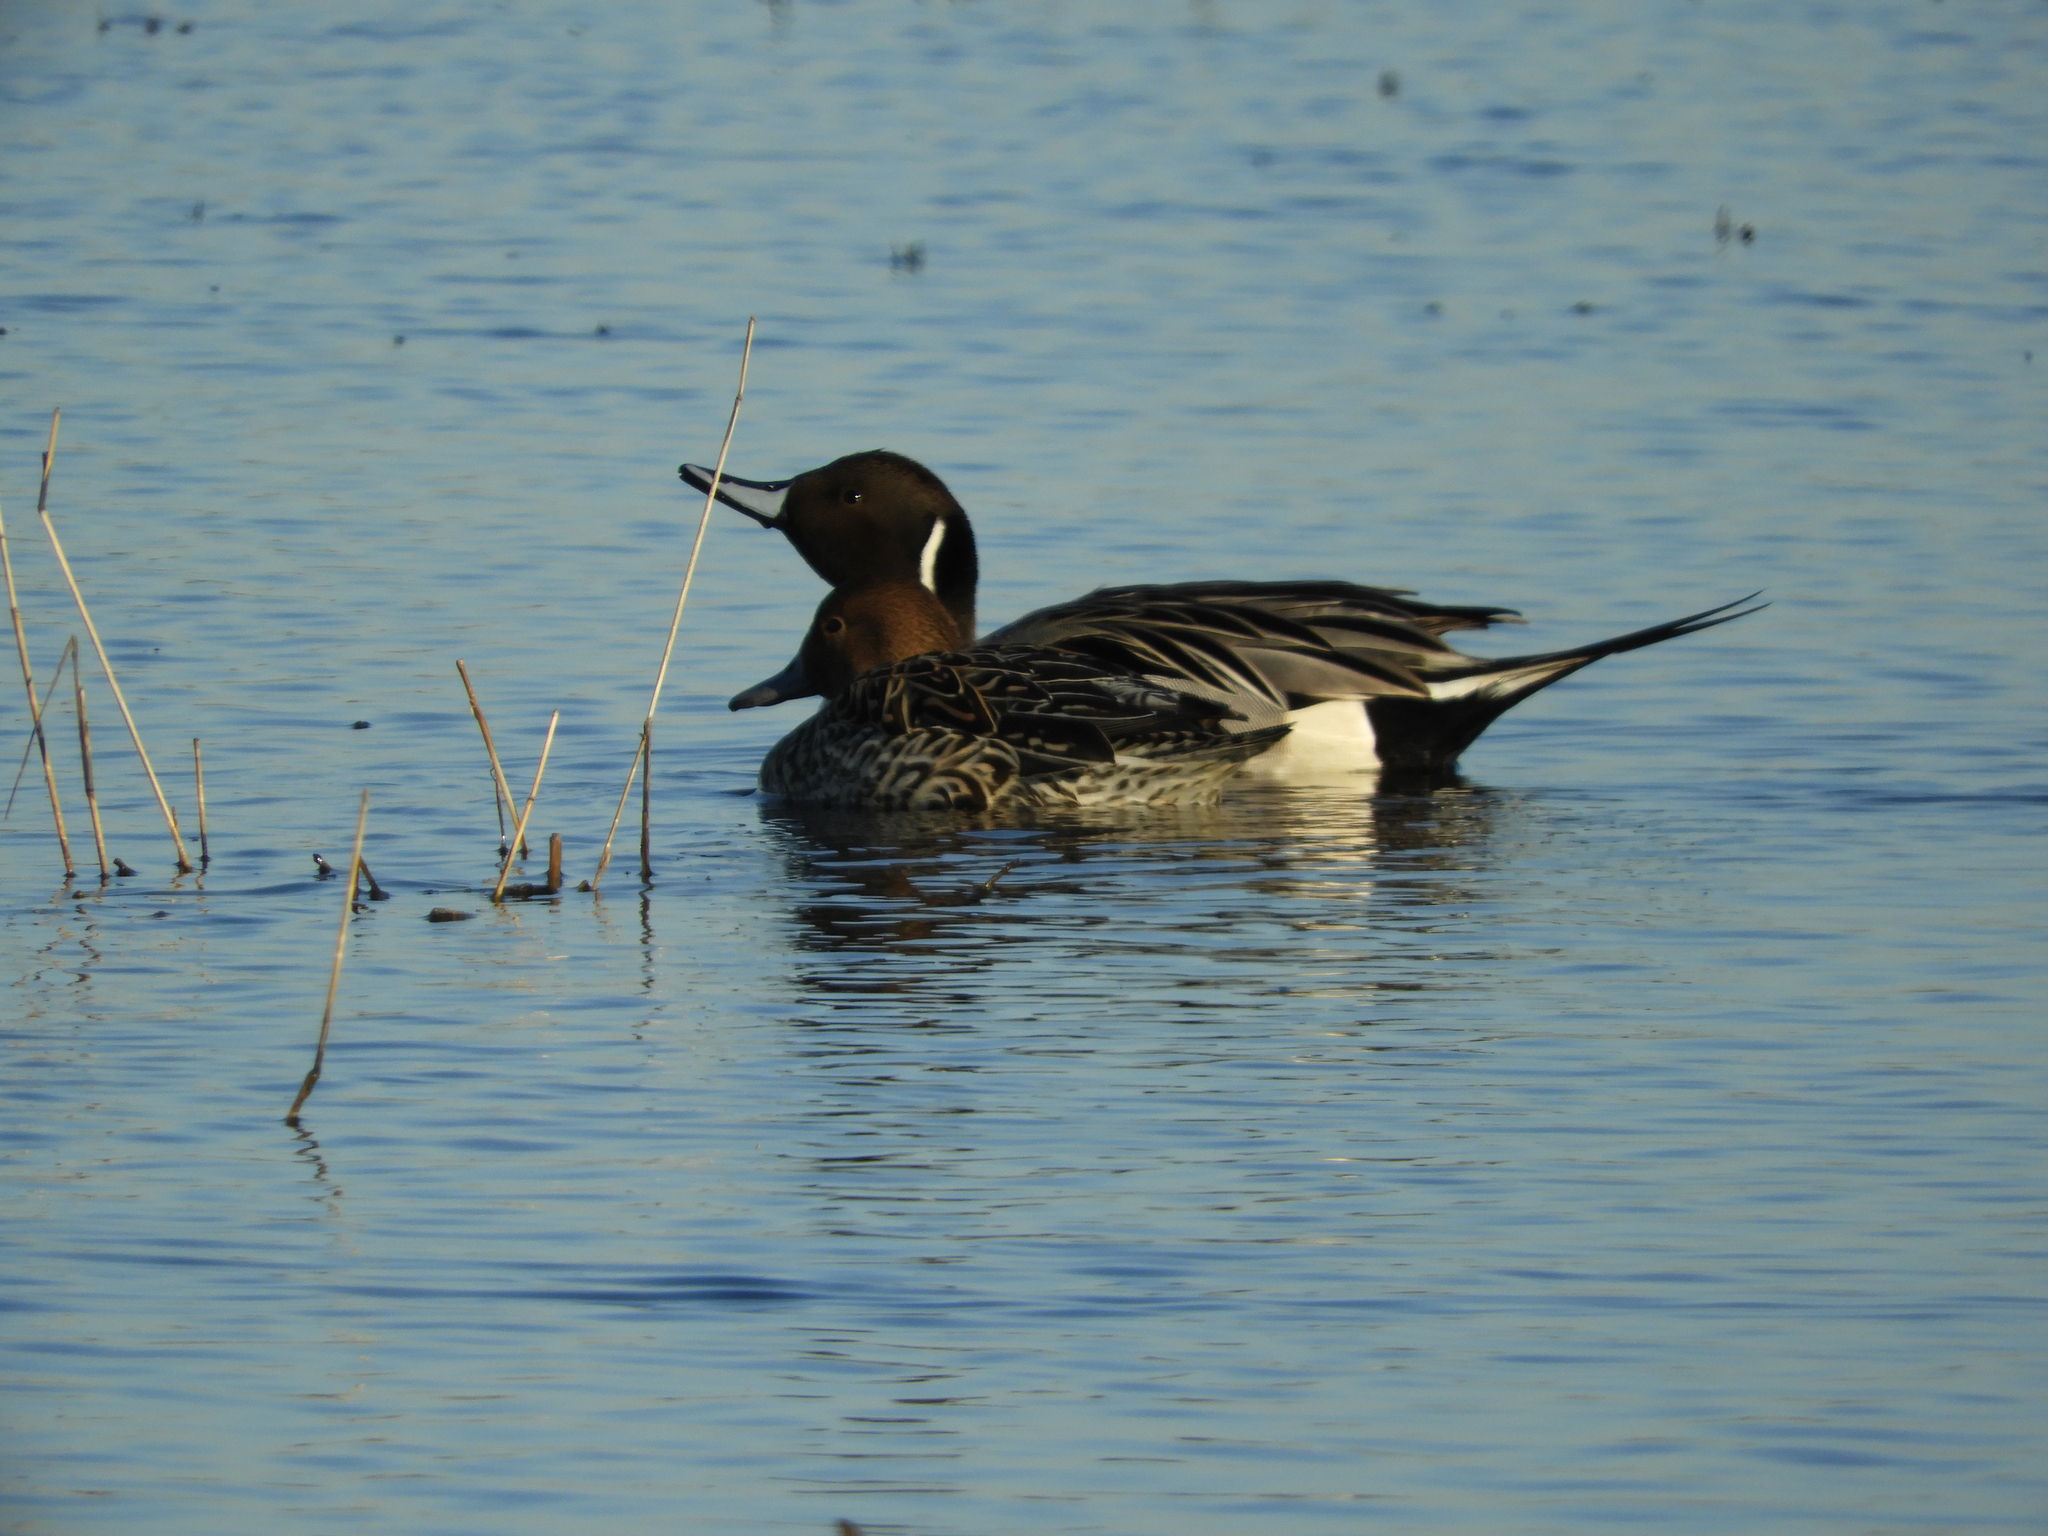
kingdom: Animalia
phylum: Chordata
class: Aves
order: Anseriformes
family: Anatidae
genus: Anas
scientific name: Anas acuta
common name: Northern pintail
